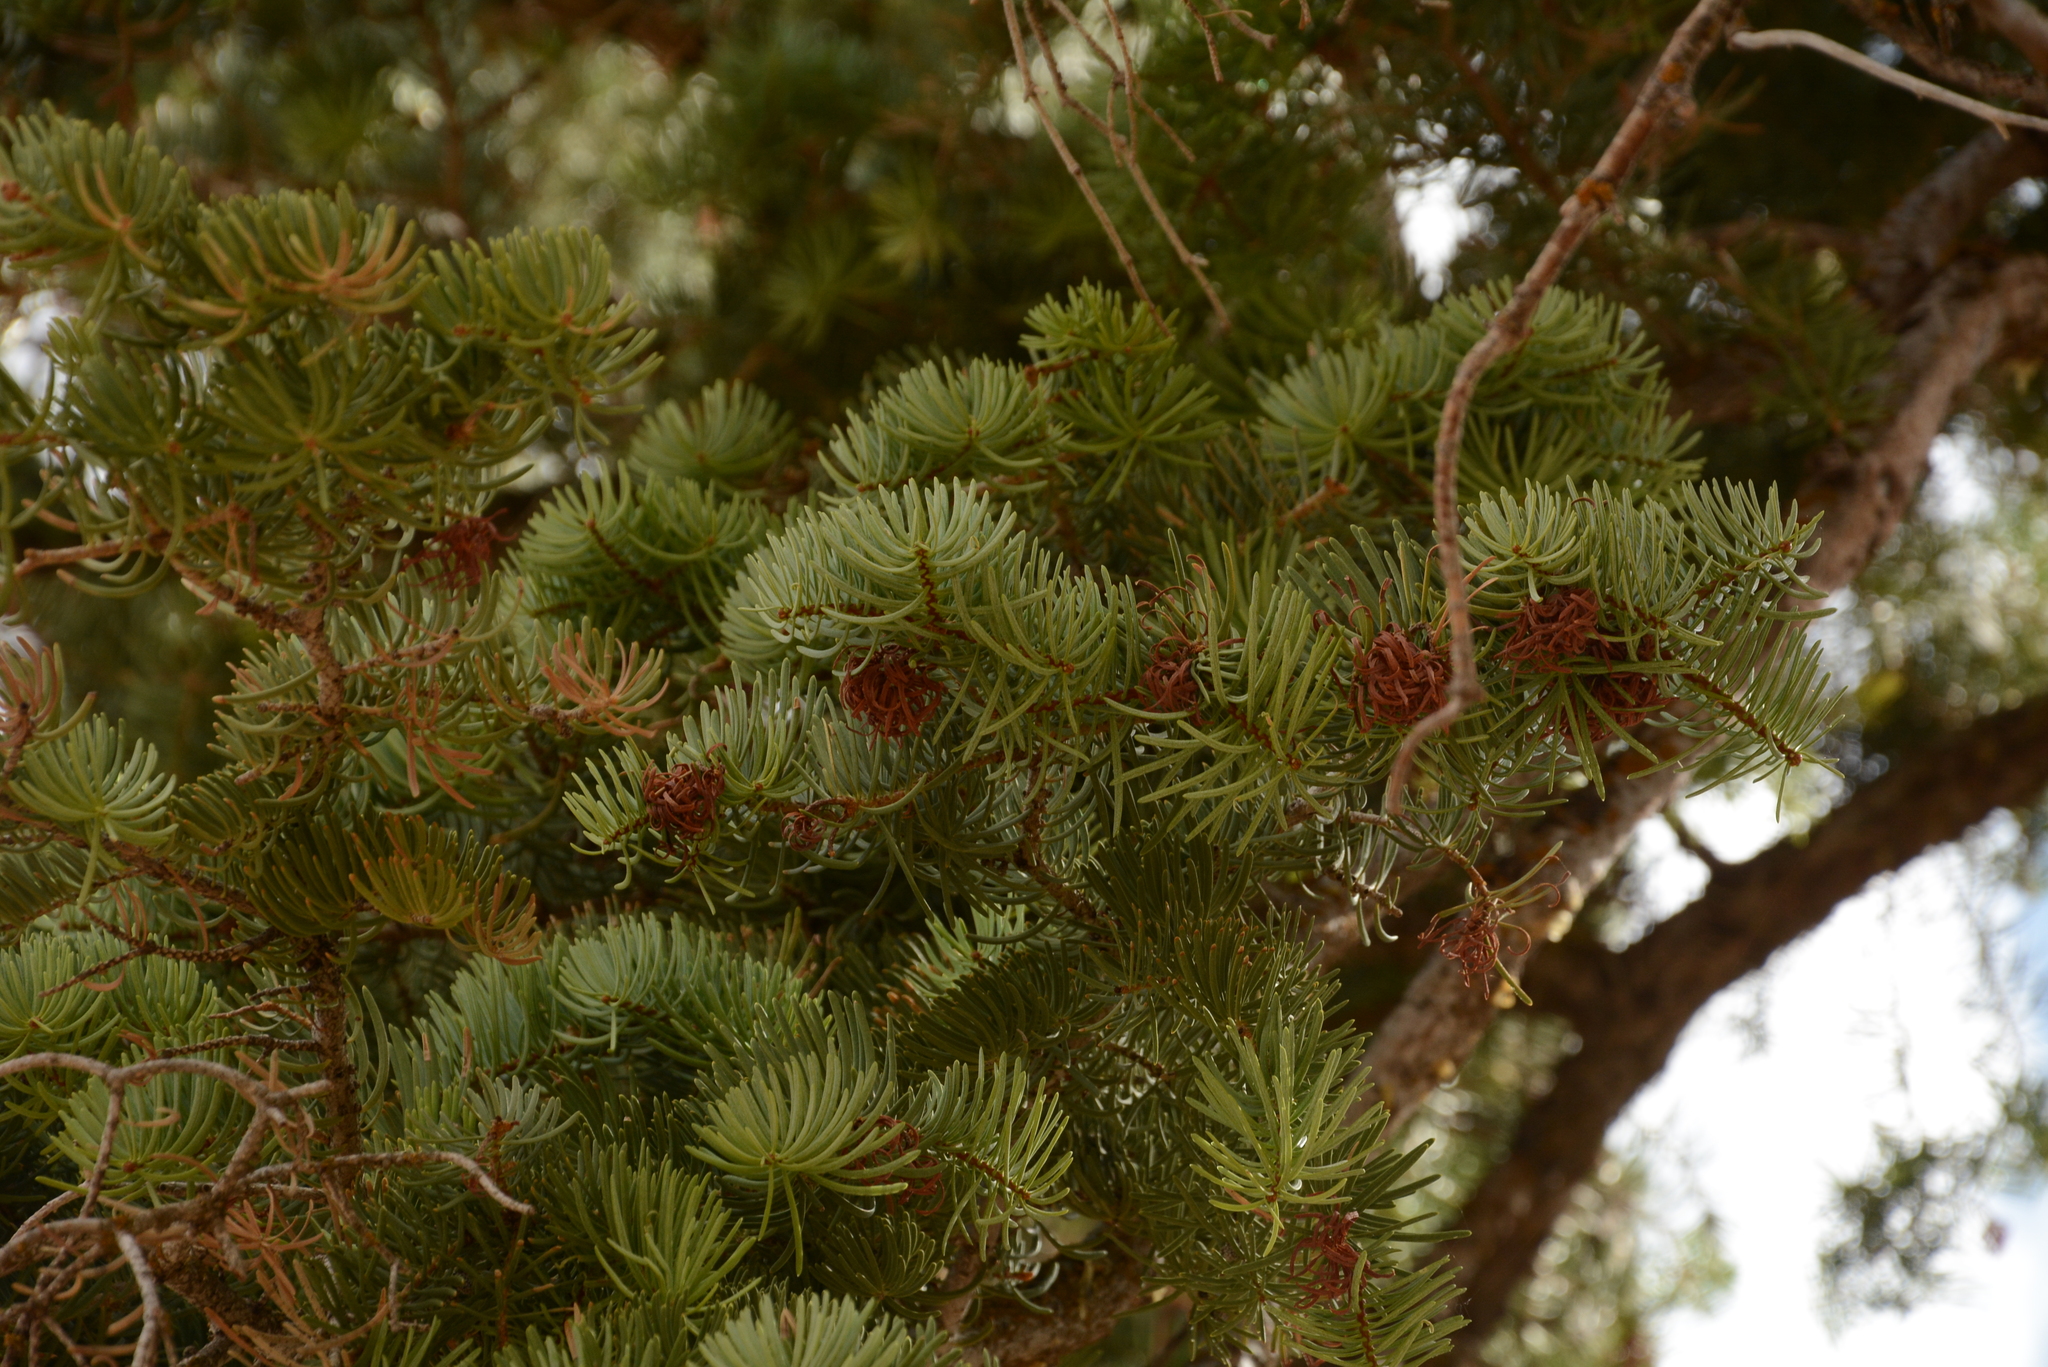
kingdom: Plantae
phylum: Tracheophyta
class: Pinopsida
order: Pinales
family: Pinaceae
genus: Abies
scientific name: Abies concolor
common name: Colorado fir
